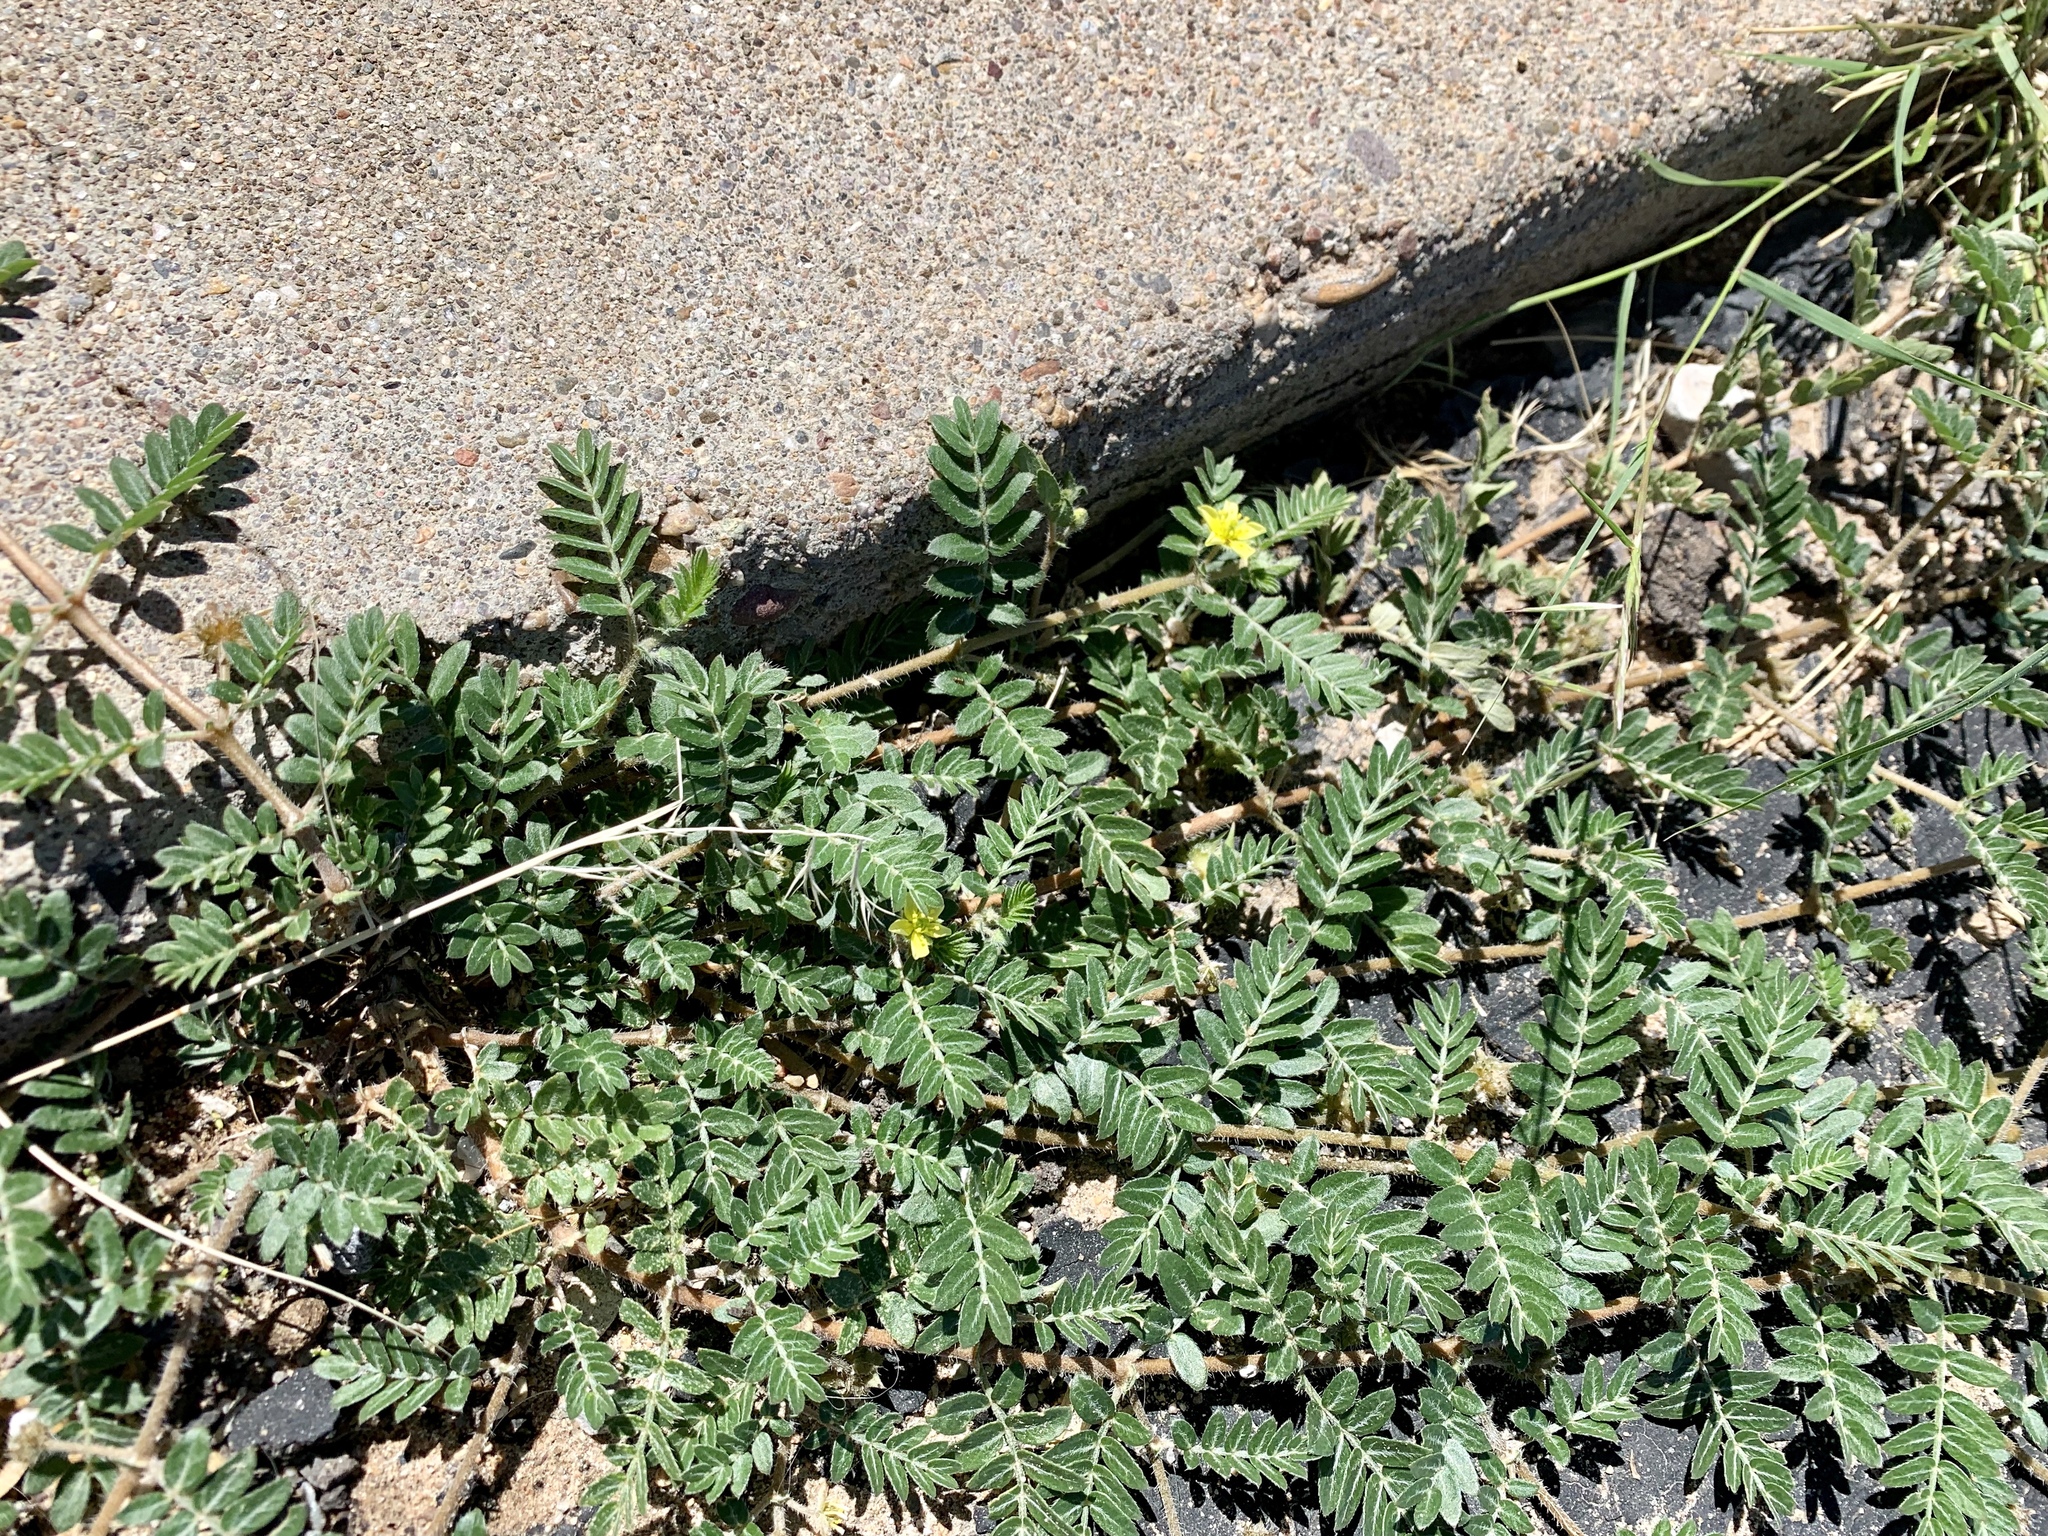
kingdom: Plantae
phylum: Tracheophyta
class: Magnoliopsida
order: Zygophyllales
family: Zygophyllaceae
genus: Tribulus
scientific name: Tribulus terrestris
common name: Puncturevine
